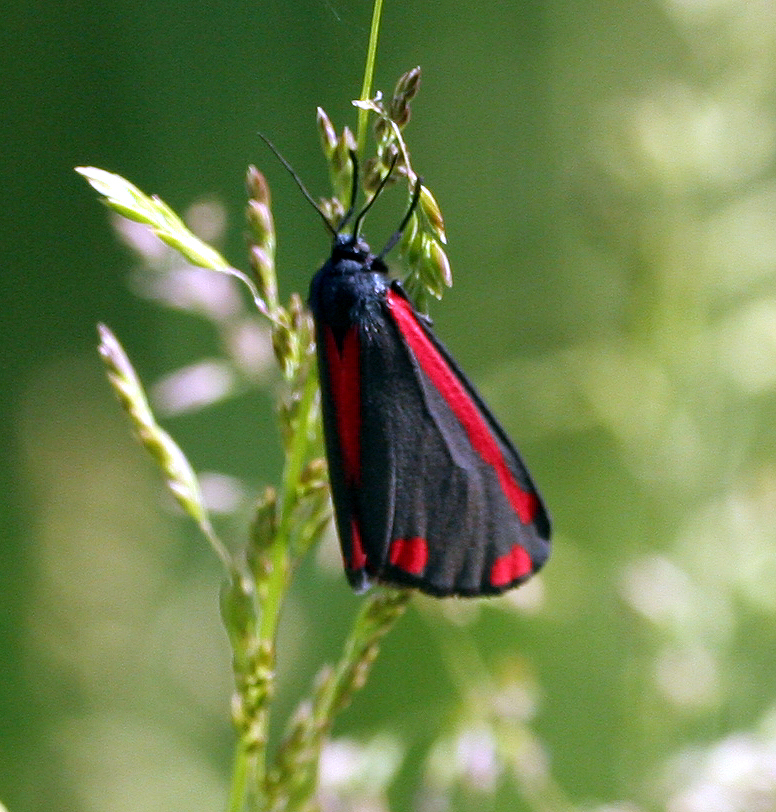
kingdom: Animalia
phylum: Arthropoda
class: Insecta
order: Lepidoptera
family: Erebidae
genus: Tyria
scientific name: Tyria jacobaeae
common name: Cinnabar
